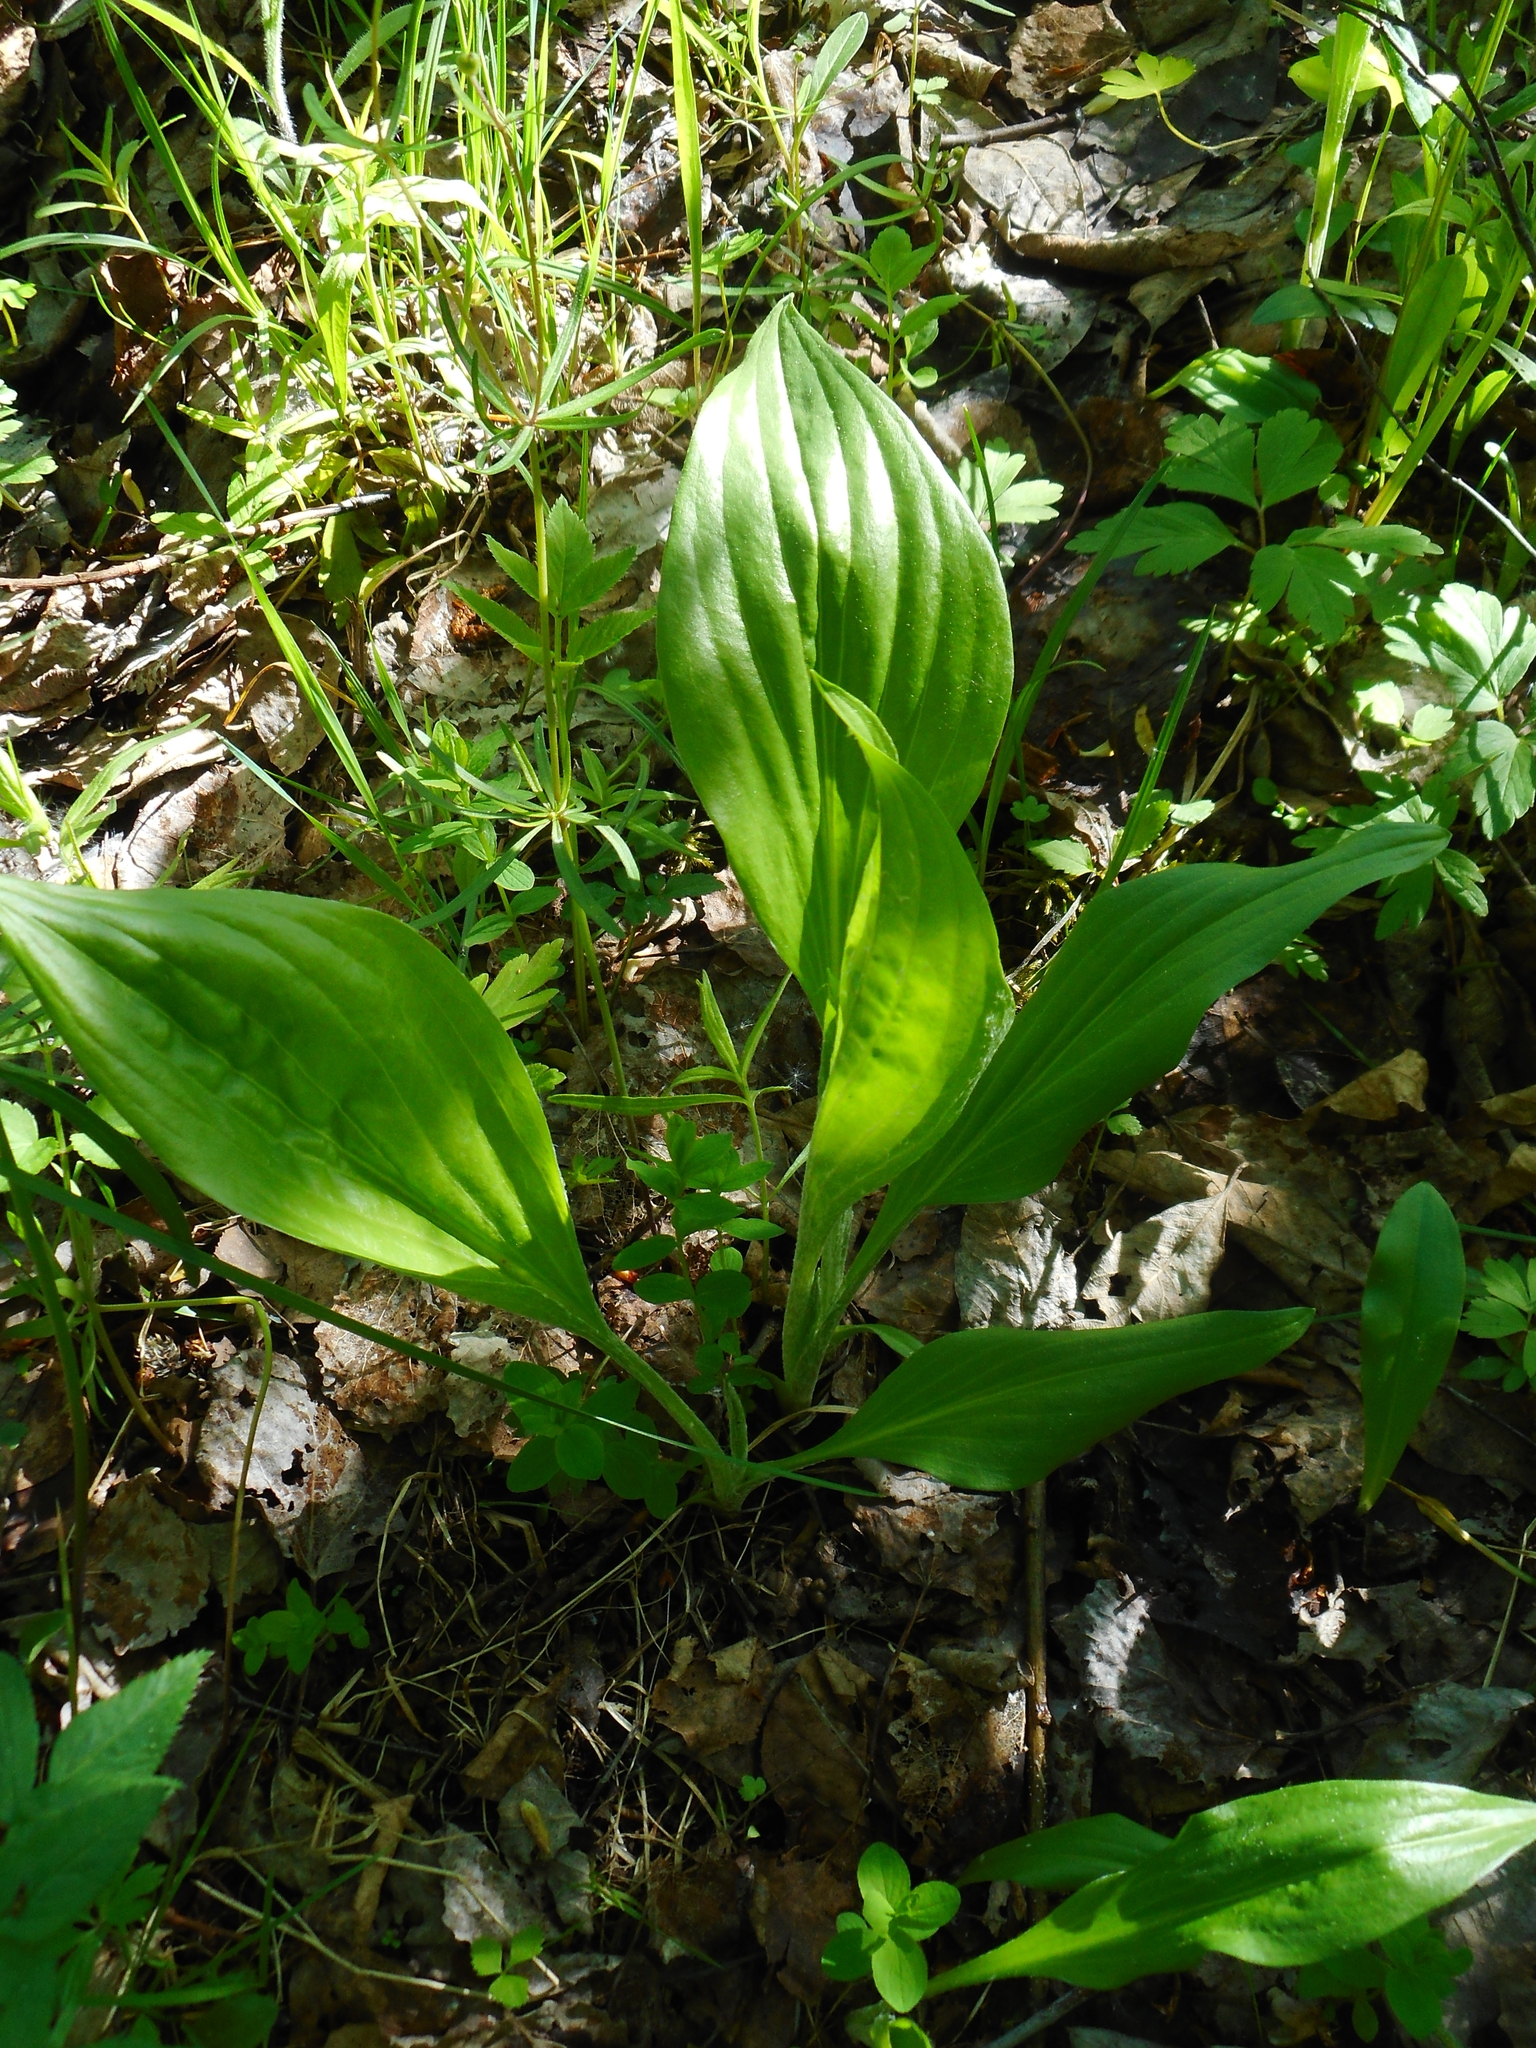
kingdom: Plantae
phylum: Tracheophyta
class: Magnoliopsida
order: Asterales
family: Asteraceae
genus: Scorzonera
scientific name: Scorzonera humilis
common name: Viper's-grass
